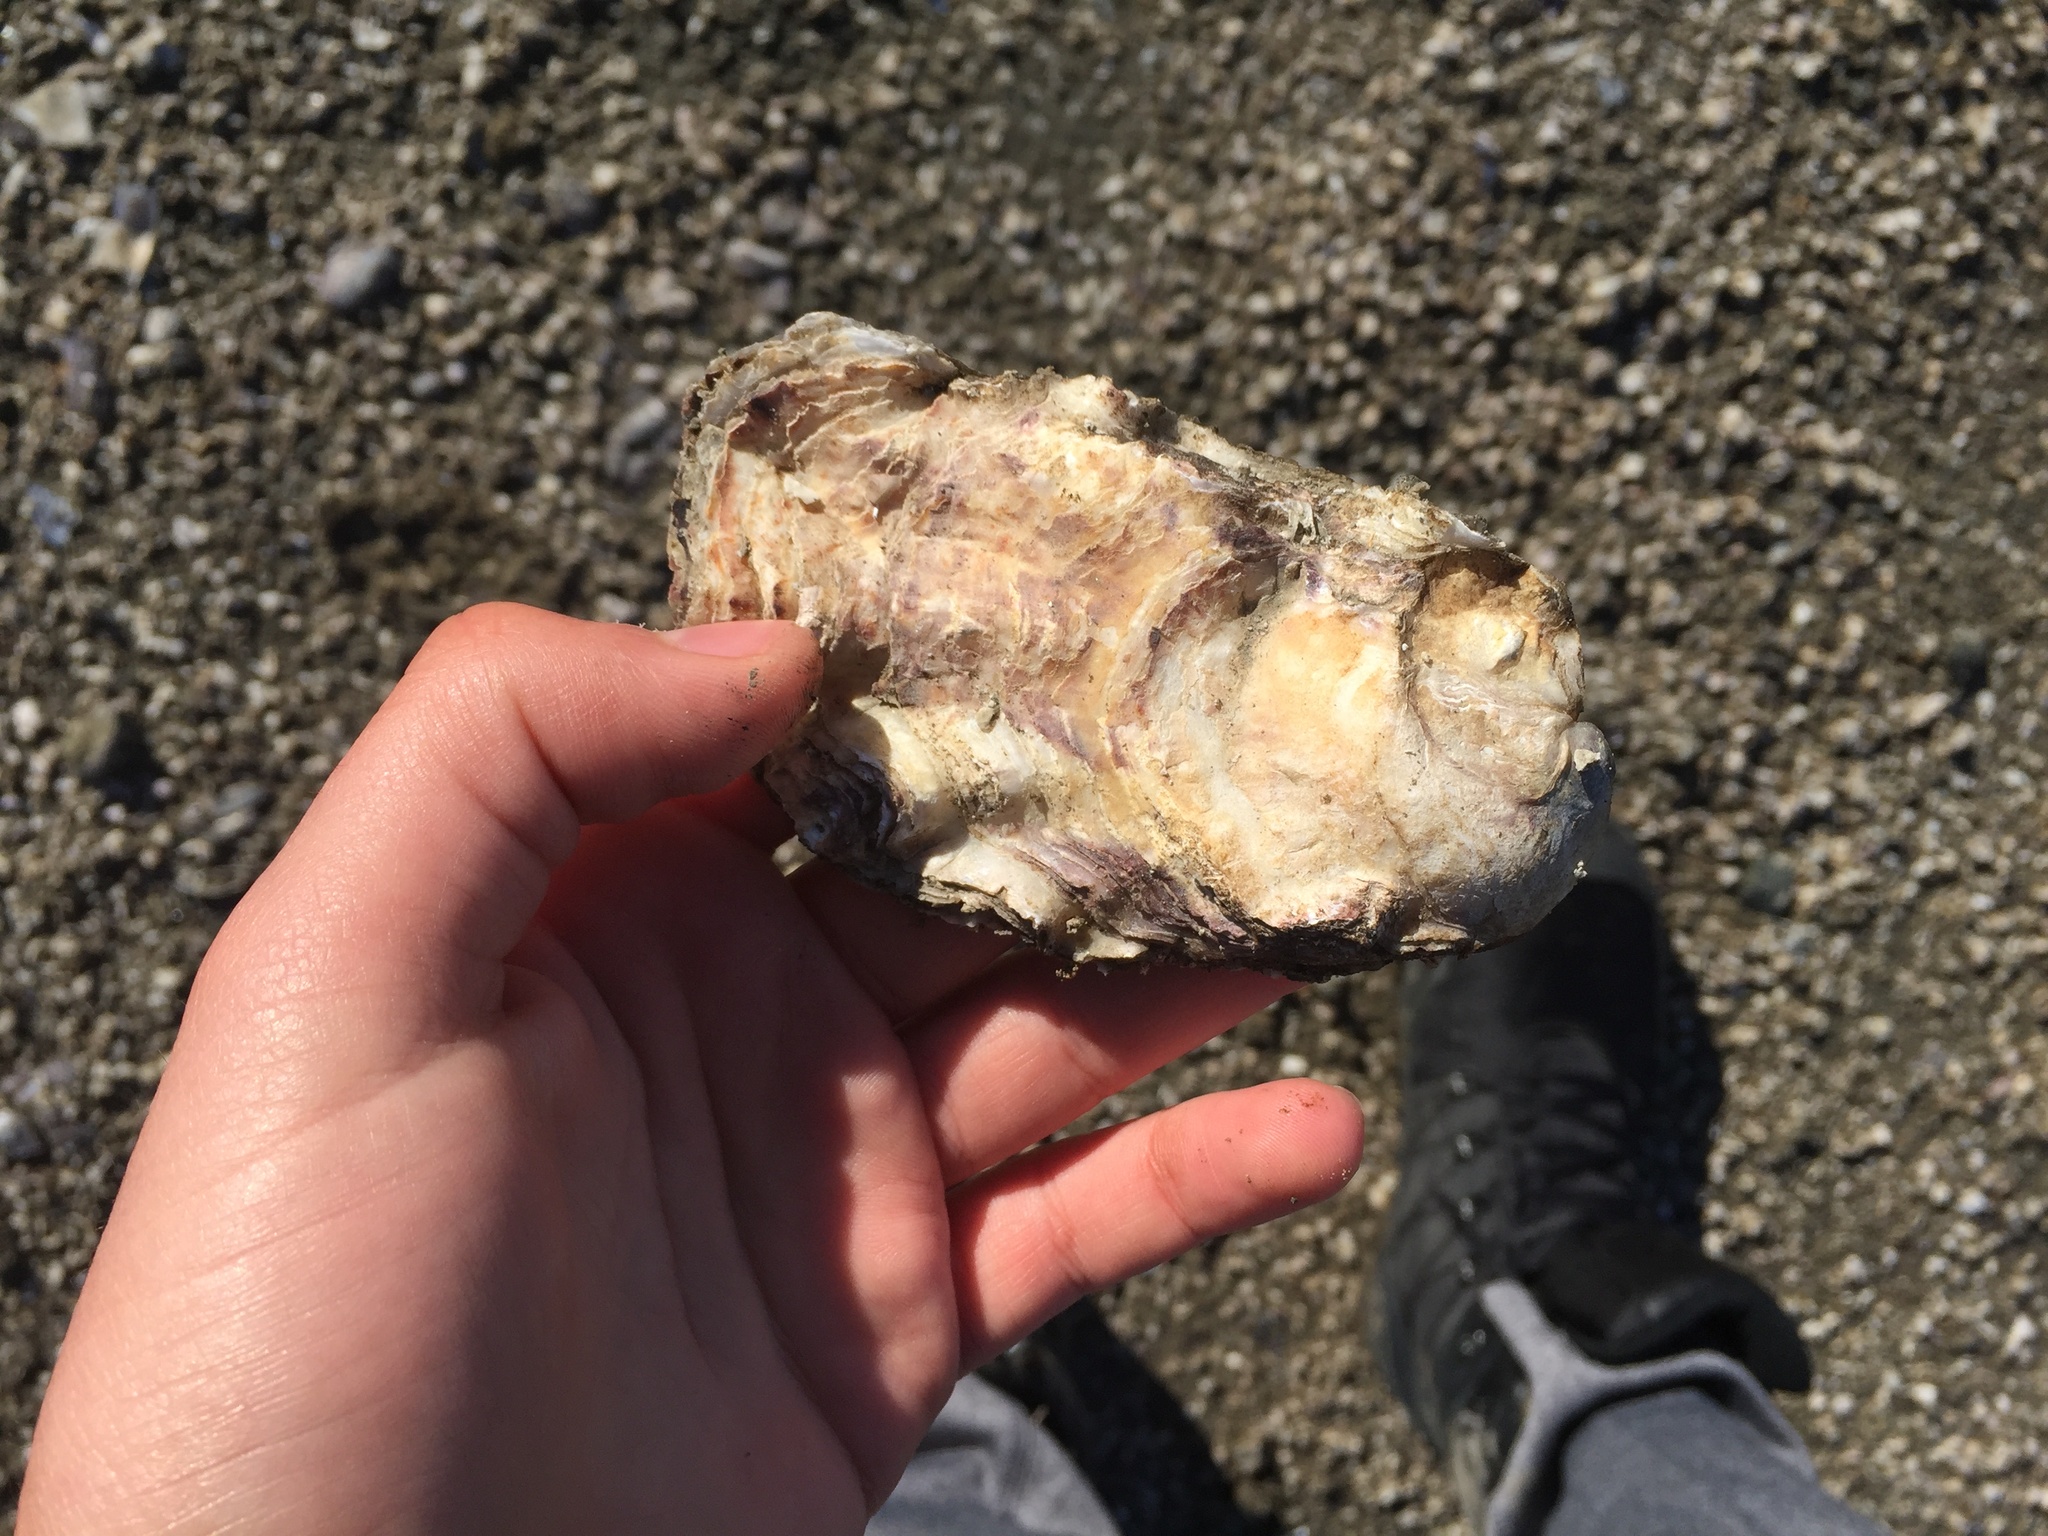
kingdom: Animalia
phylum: Mollusca
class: Bivalvia
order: Ostreida
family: Ostreidae
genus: Magallana
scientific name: Magallana gigas
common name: Pacific oyster
